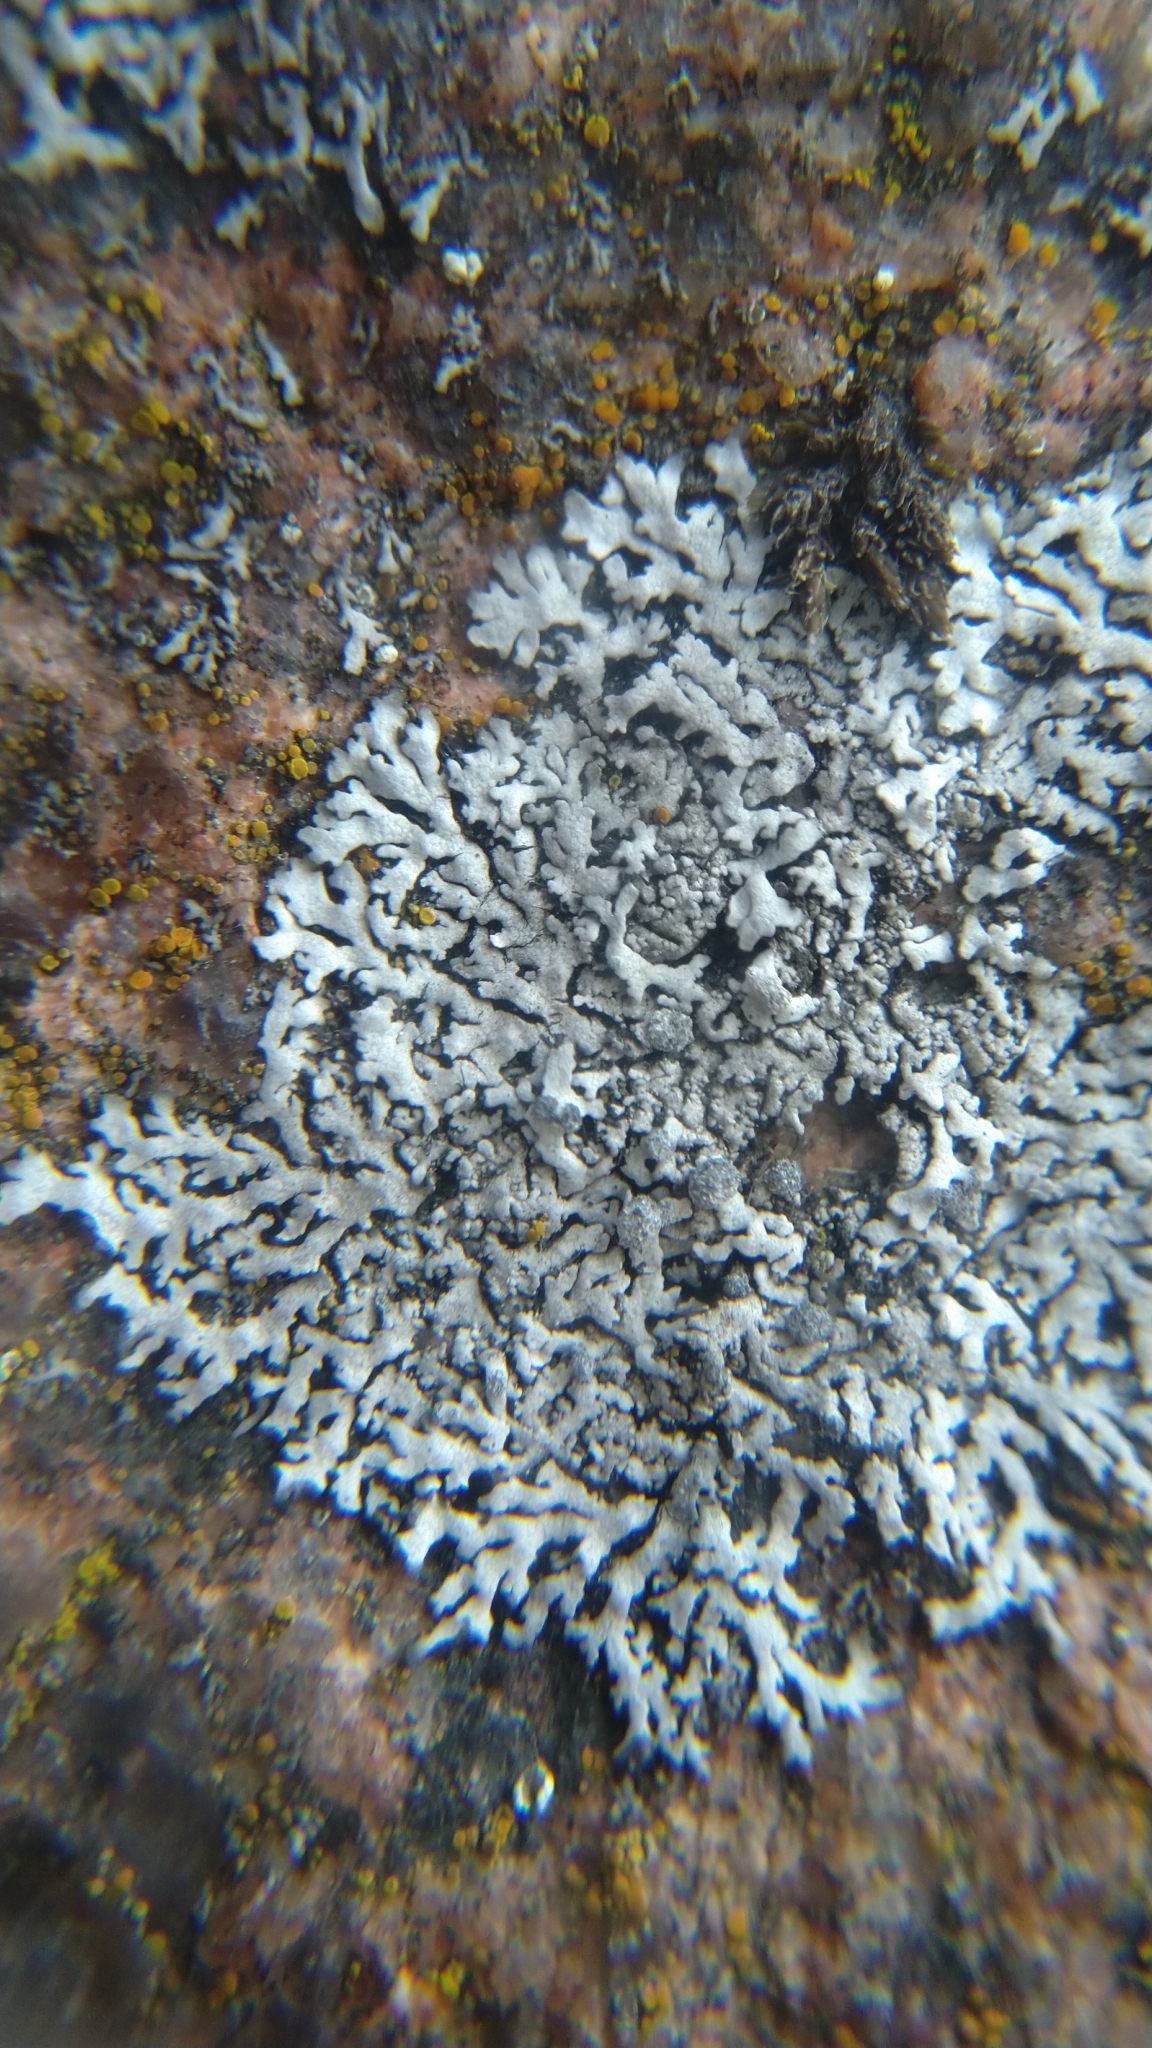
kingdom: Fungi
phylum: Ascomycota
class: Lecanoromycetes
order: Caliciales
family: Physciaceae
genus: Physcia
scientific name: Physcia caesia
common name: Blue-gray rosette lichen
